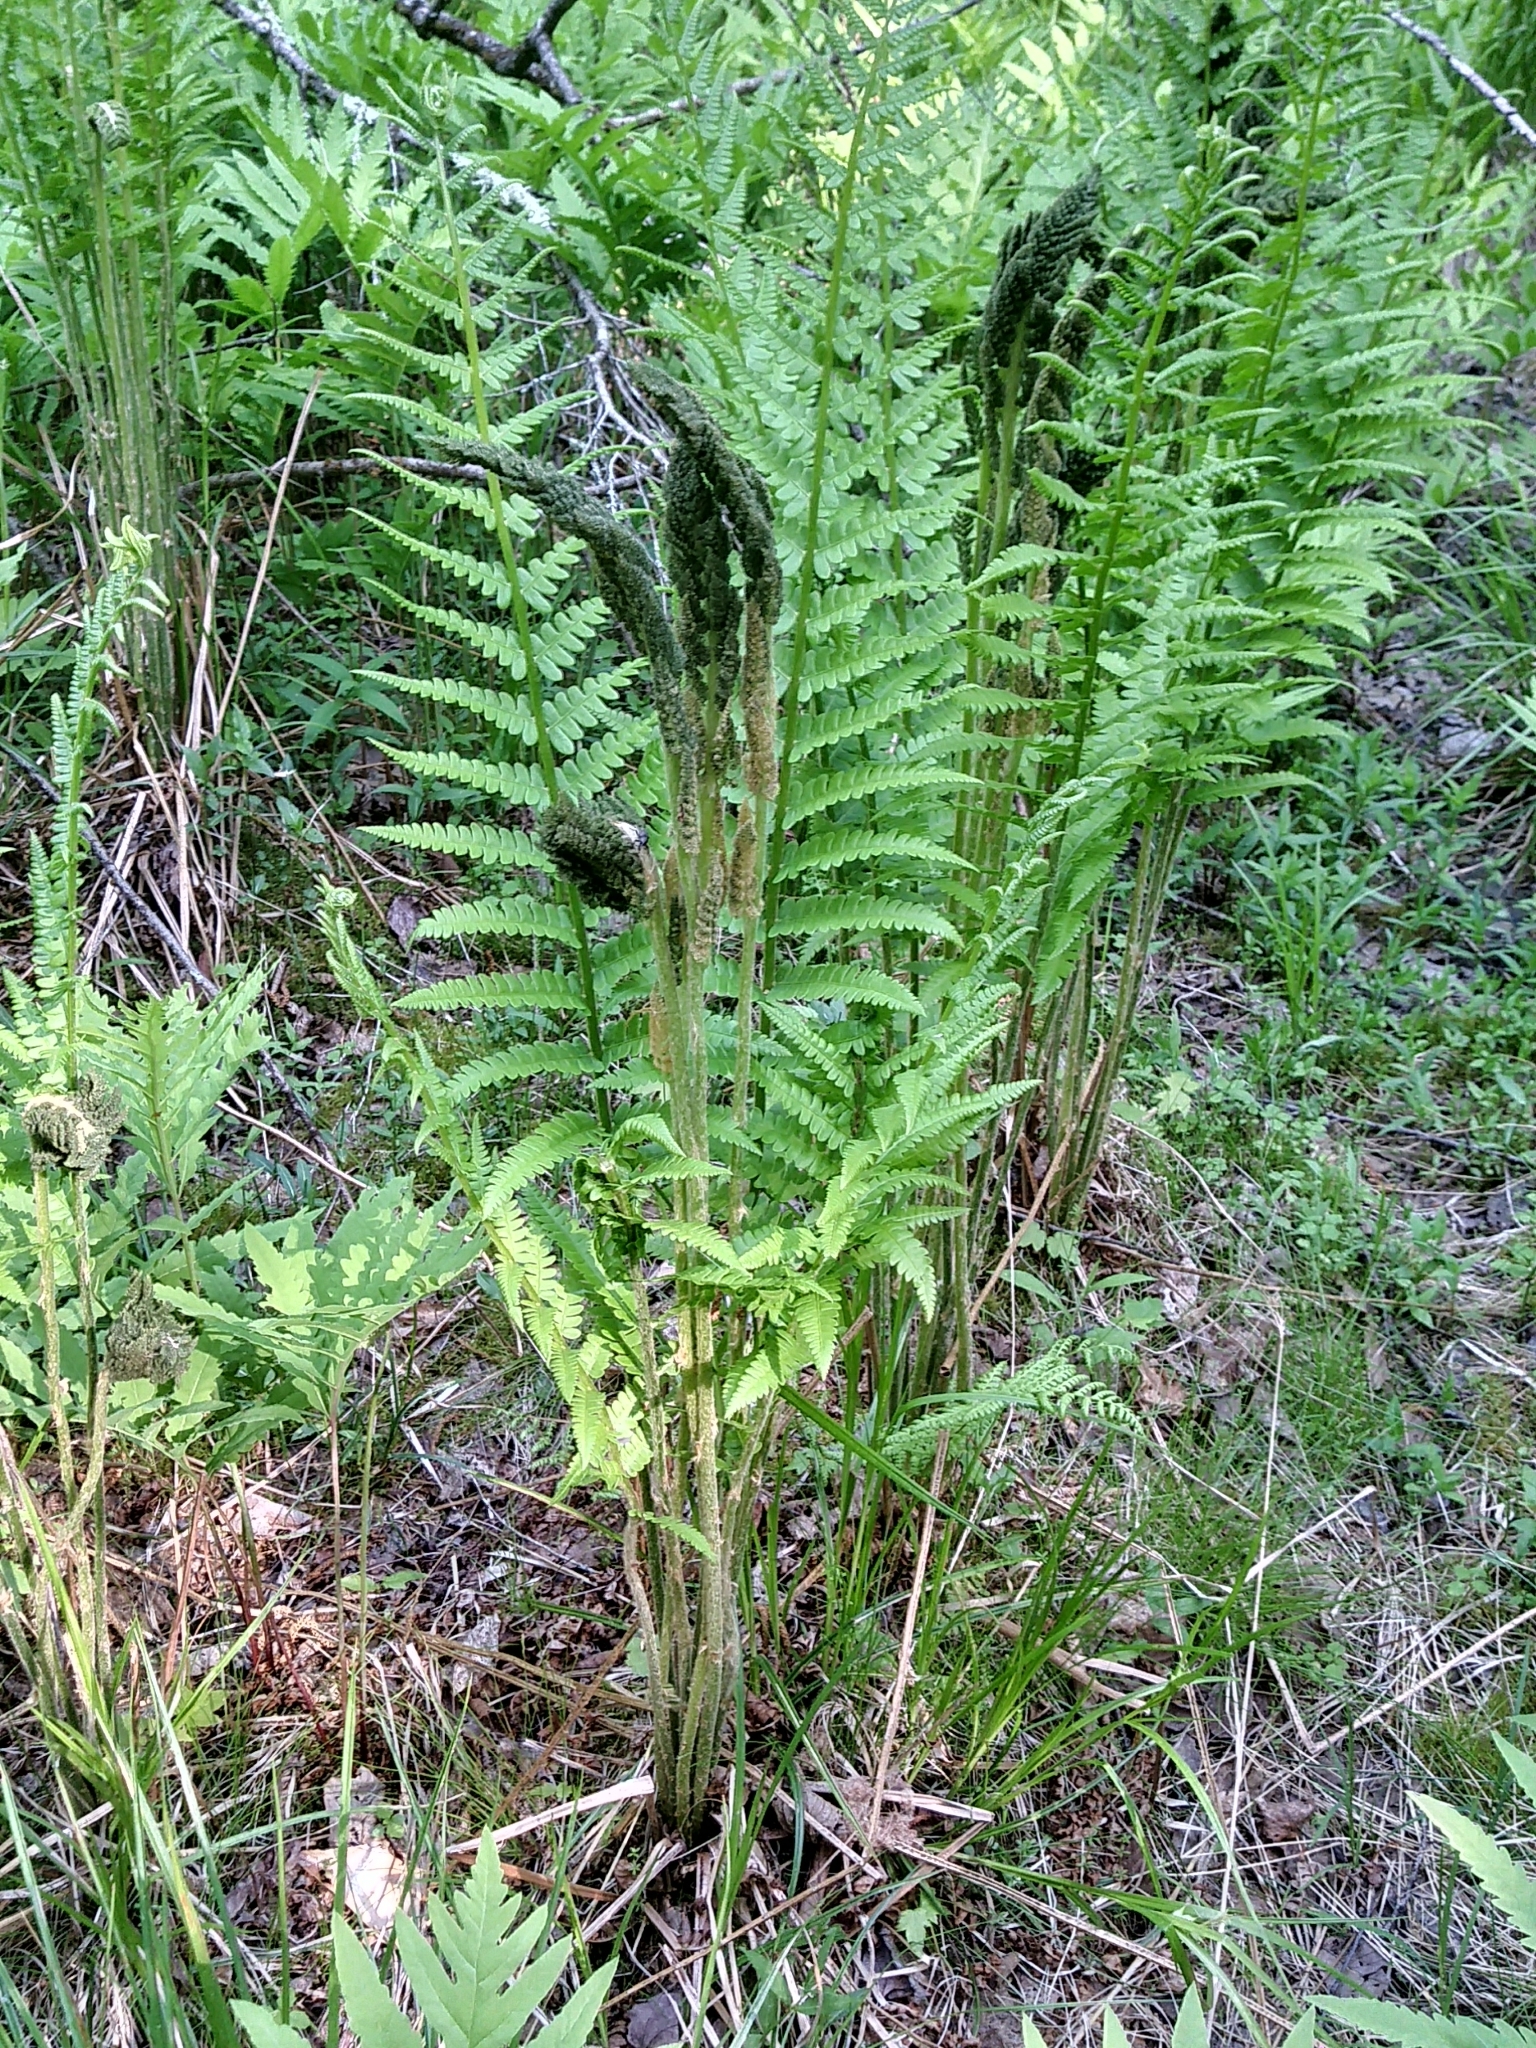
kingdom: Plantae
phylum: Tracheophyta
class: Polypodiopsida
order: Osmundales
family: Osmundaceae
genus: Osmundastrum
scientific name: Osmundastrum cinnamomeum
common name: Cinnamon fern
